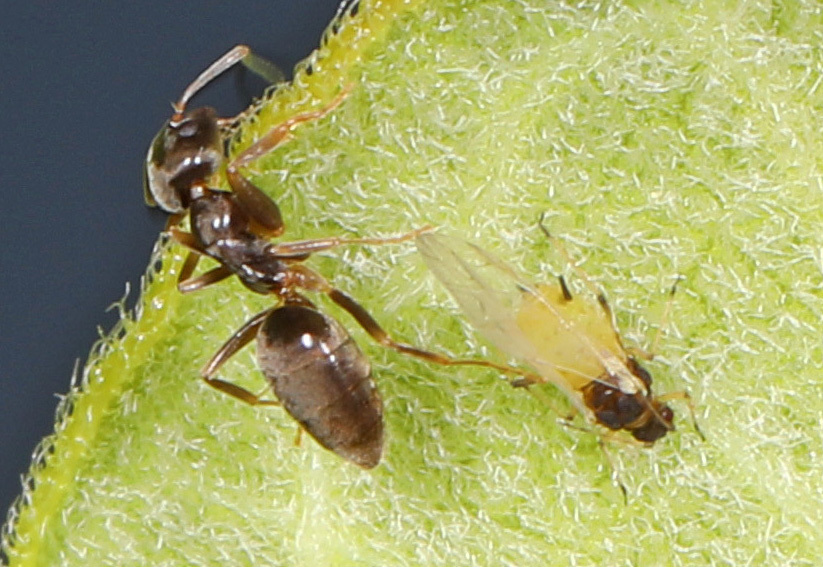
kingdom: Animalia
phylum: Arthropoda
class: Insecta
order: Hymenoptera
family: Formicidae
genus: Tapinoma
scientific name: Tapinoma sessile
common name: Odorous house ant
